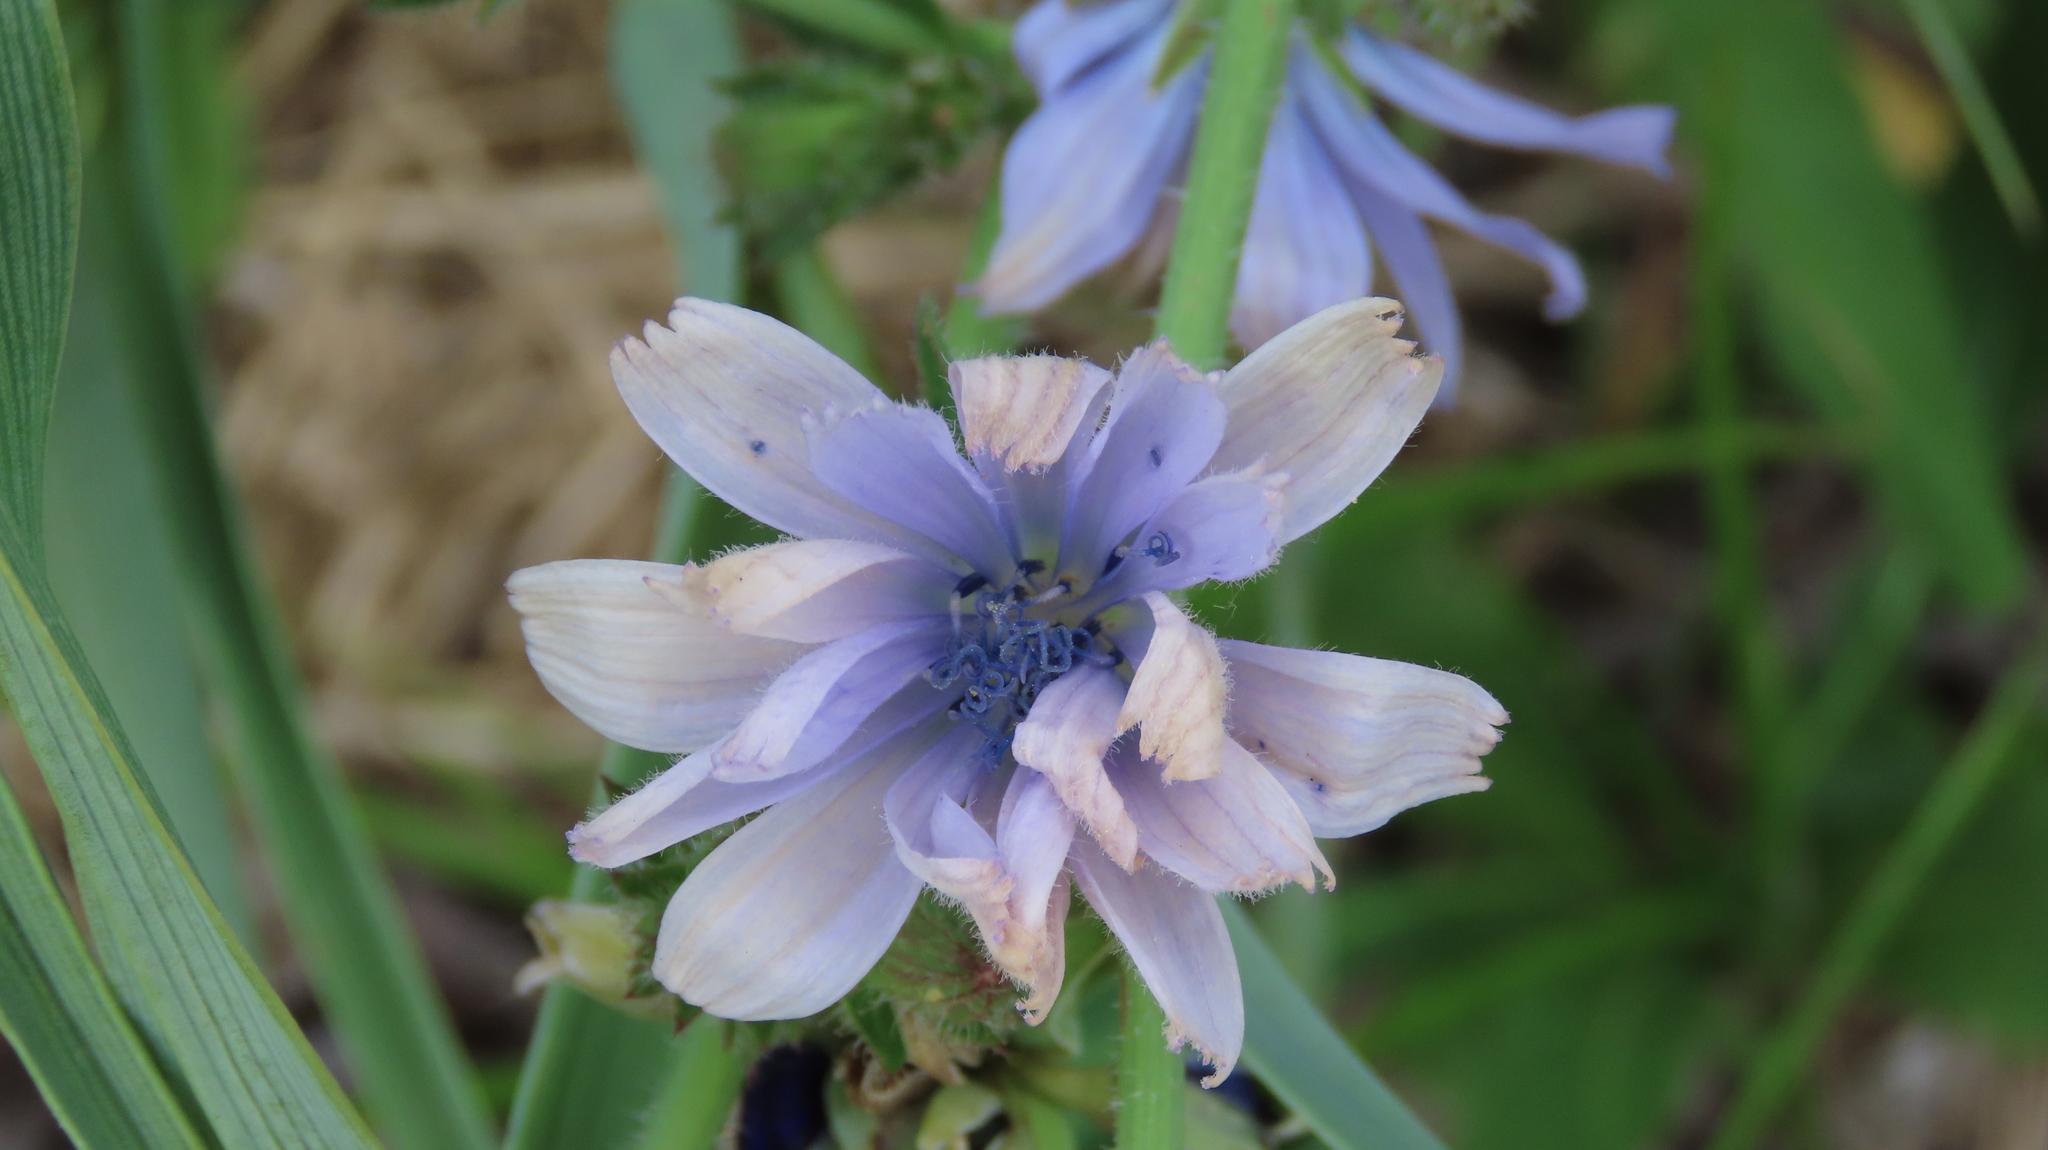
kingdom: Plantae
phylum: Tracheophyta
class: Magnoliopsida
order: Asterales
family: Asteraceae
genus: Cichorium
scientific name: Cichorium intybus
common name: Chicory
